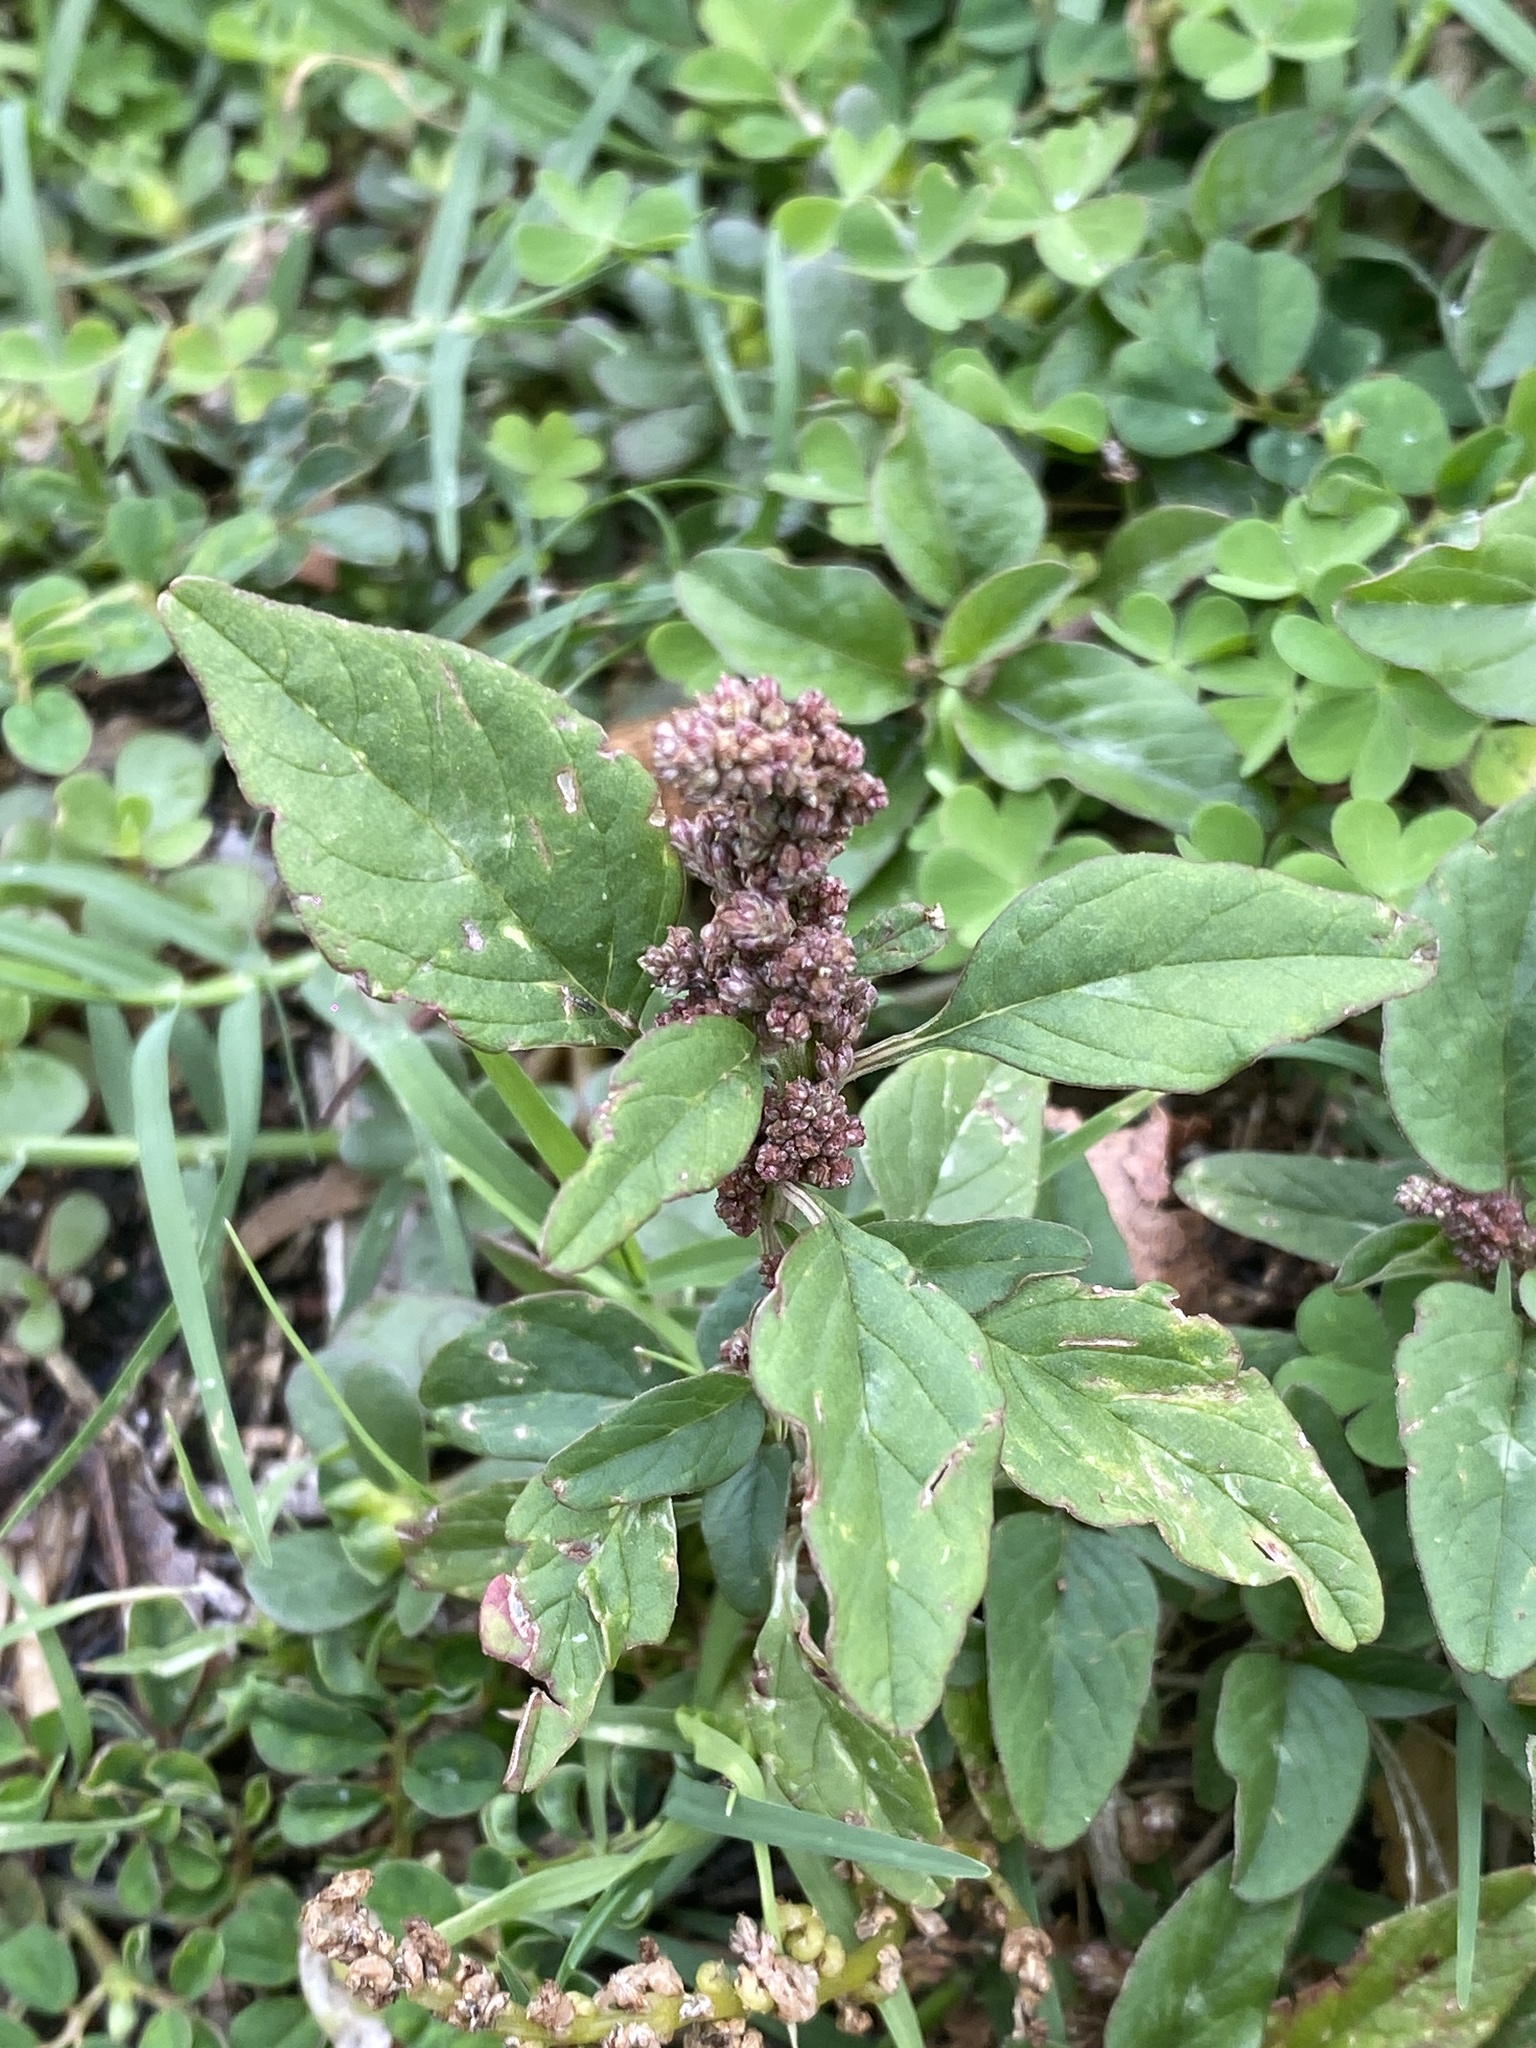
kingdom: Plantae
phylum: Tracheophyta
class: Magnoliopsida
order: Caryophyllales
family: Amaranthaceae
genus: Amaranthus
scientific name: Amaranthus viridis
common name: Slender amaranth
